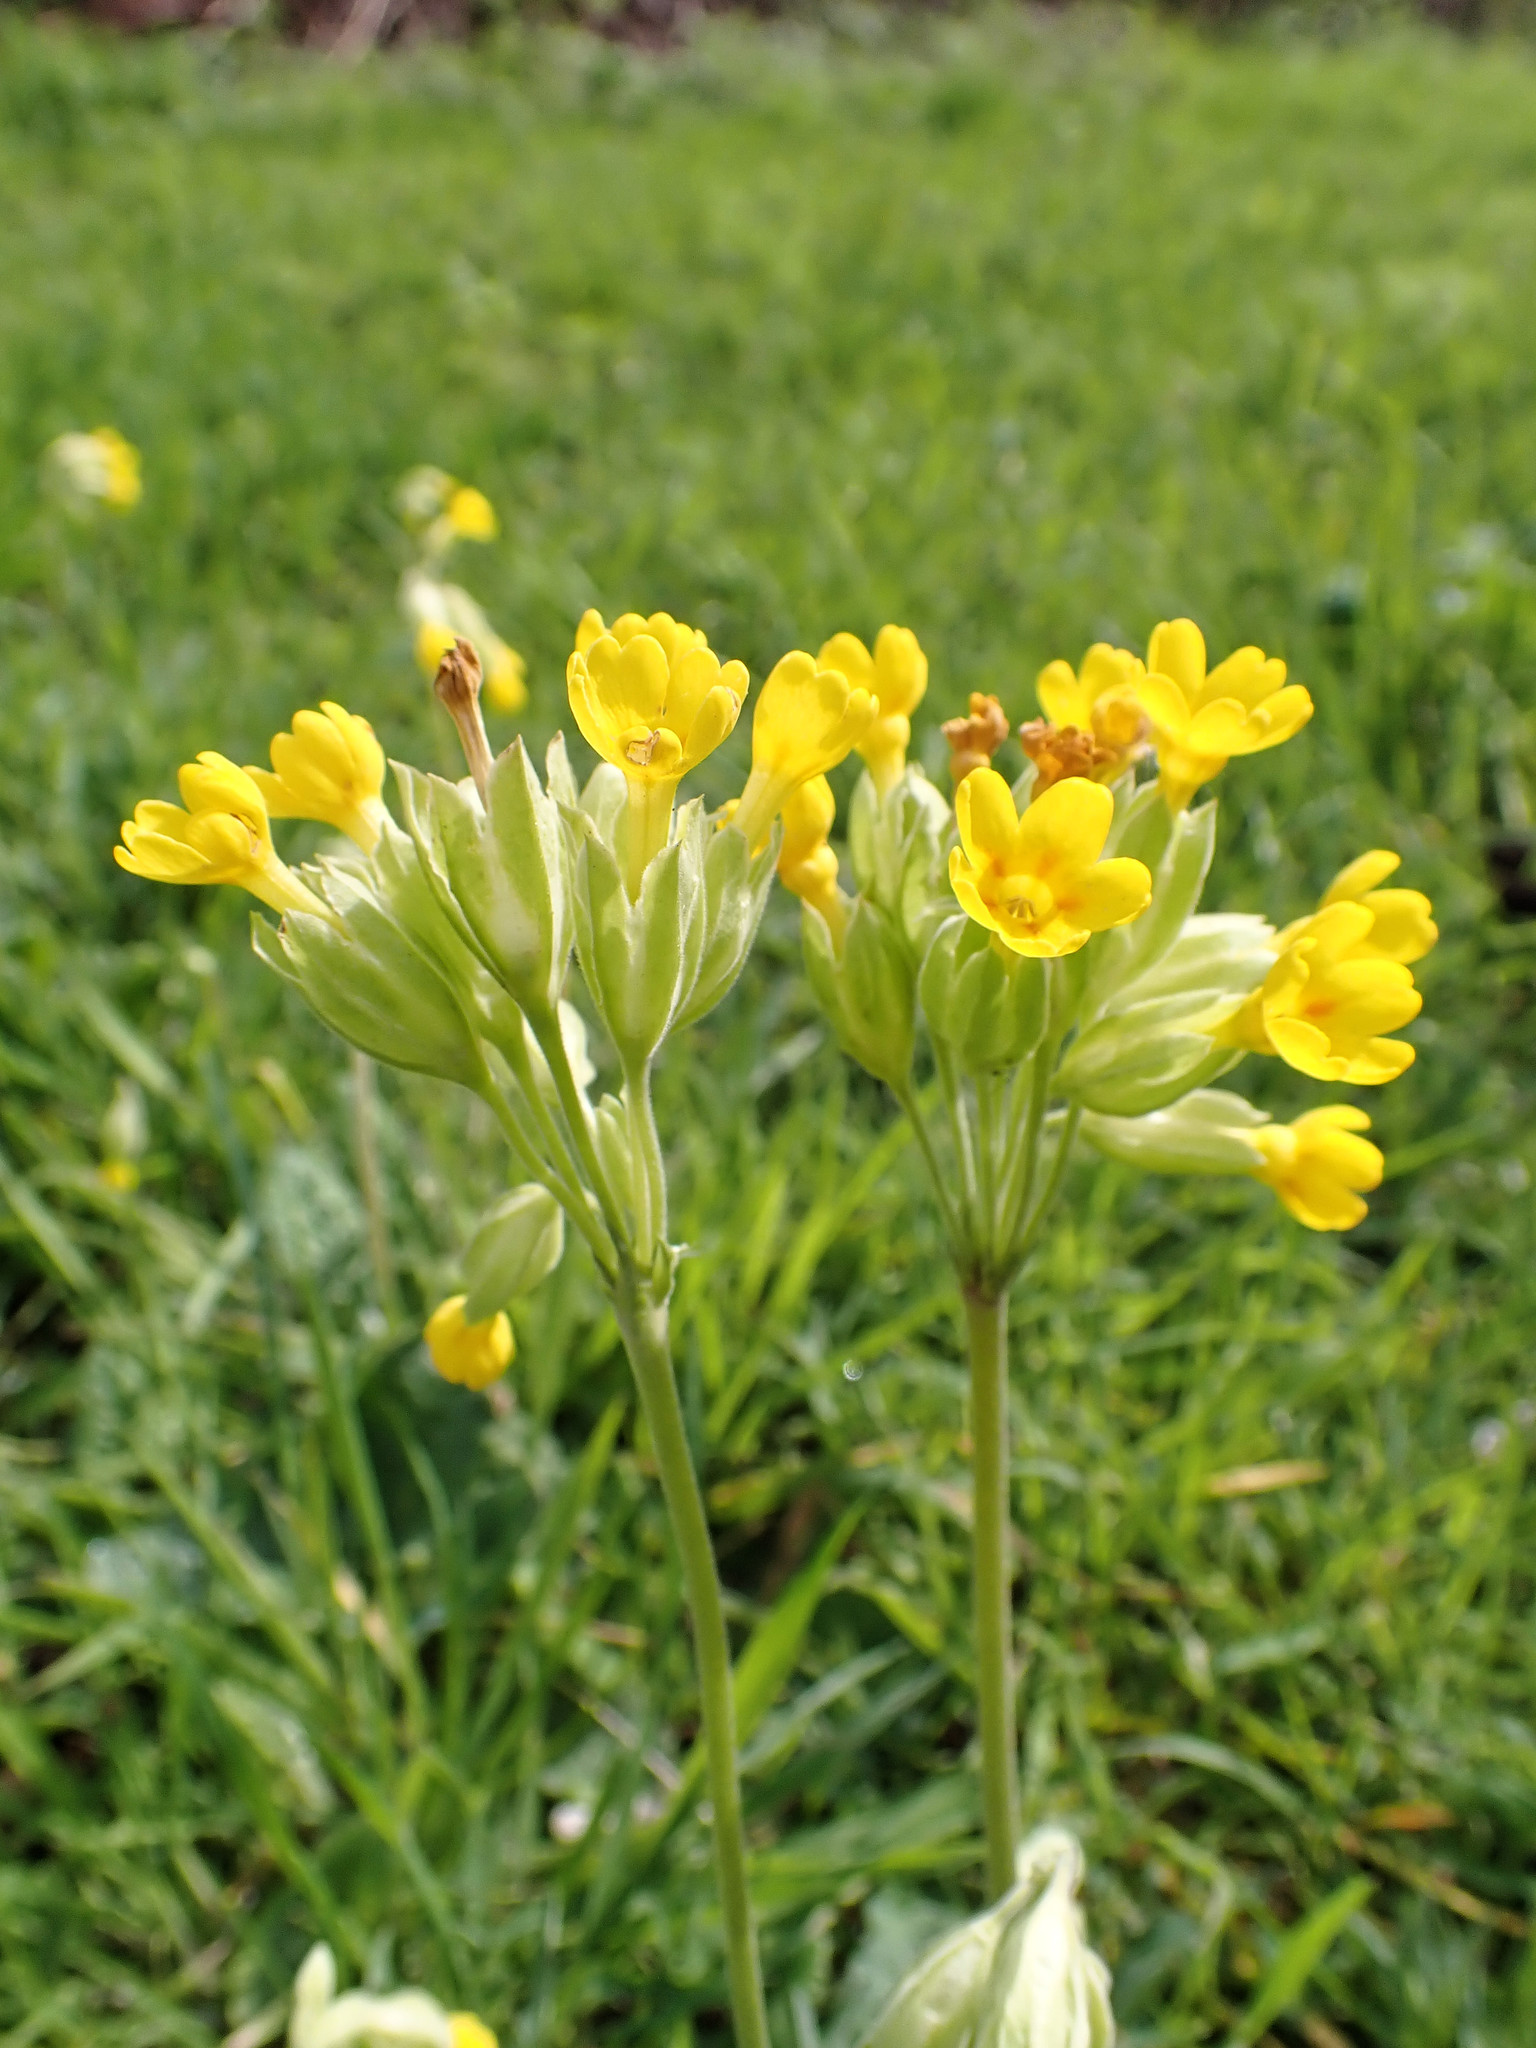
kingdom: Plantae
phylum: Tracheophyta
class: Magnoliopsida
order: Ericales
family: Primulaceae
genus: Primula
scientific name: Primula veris
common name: Cowslip
